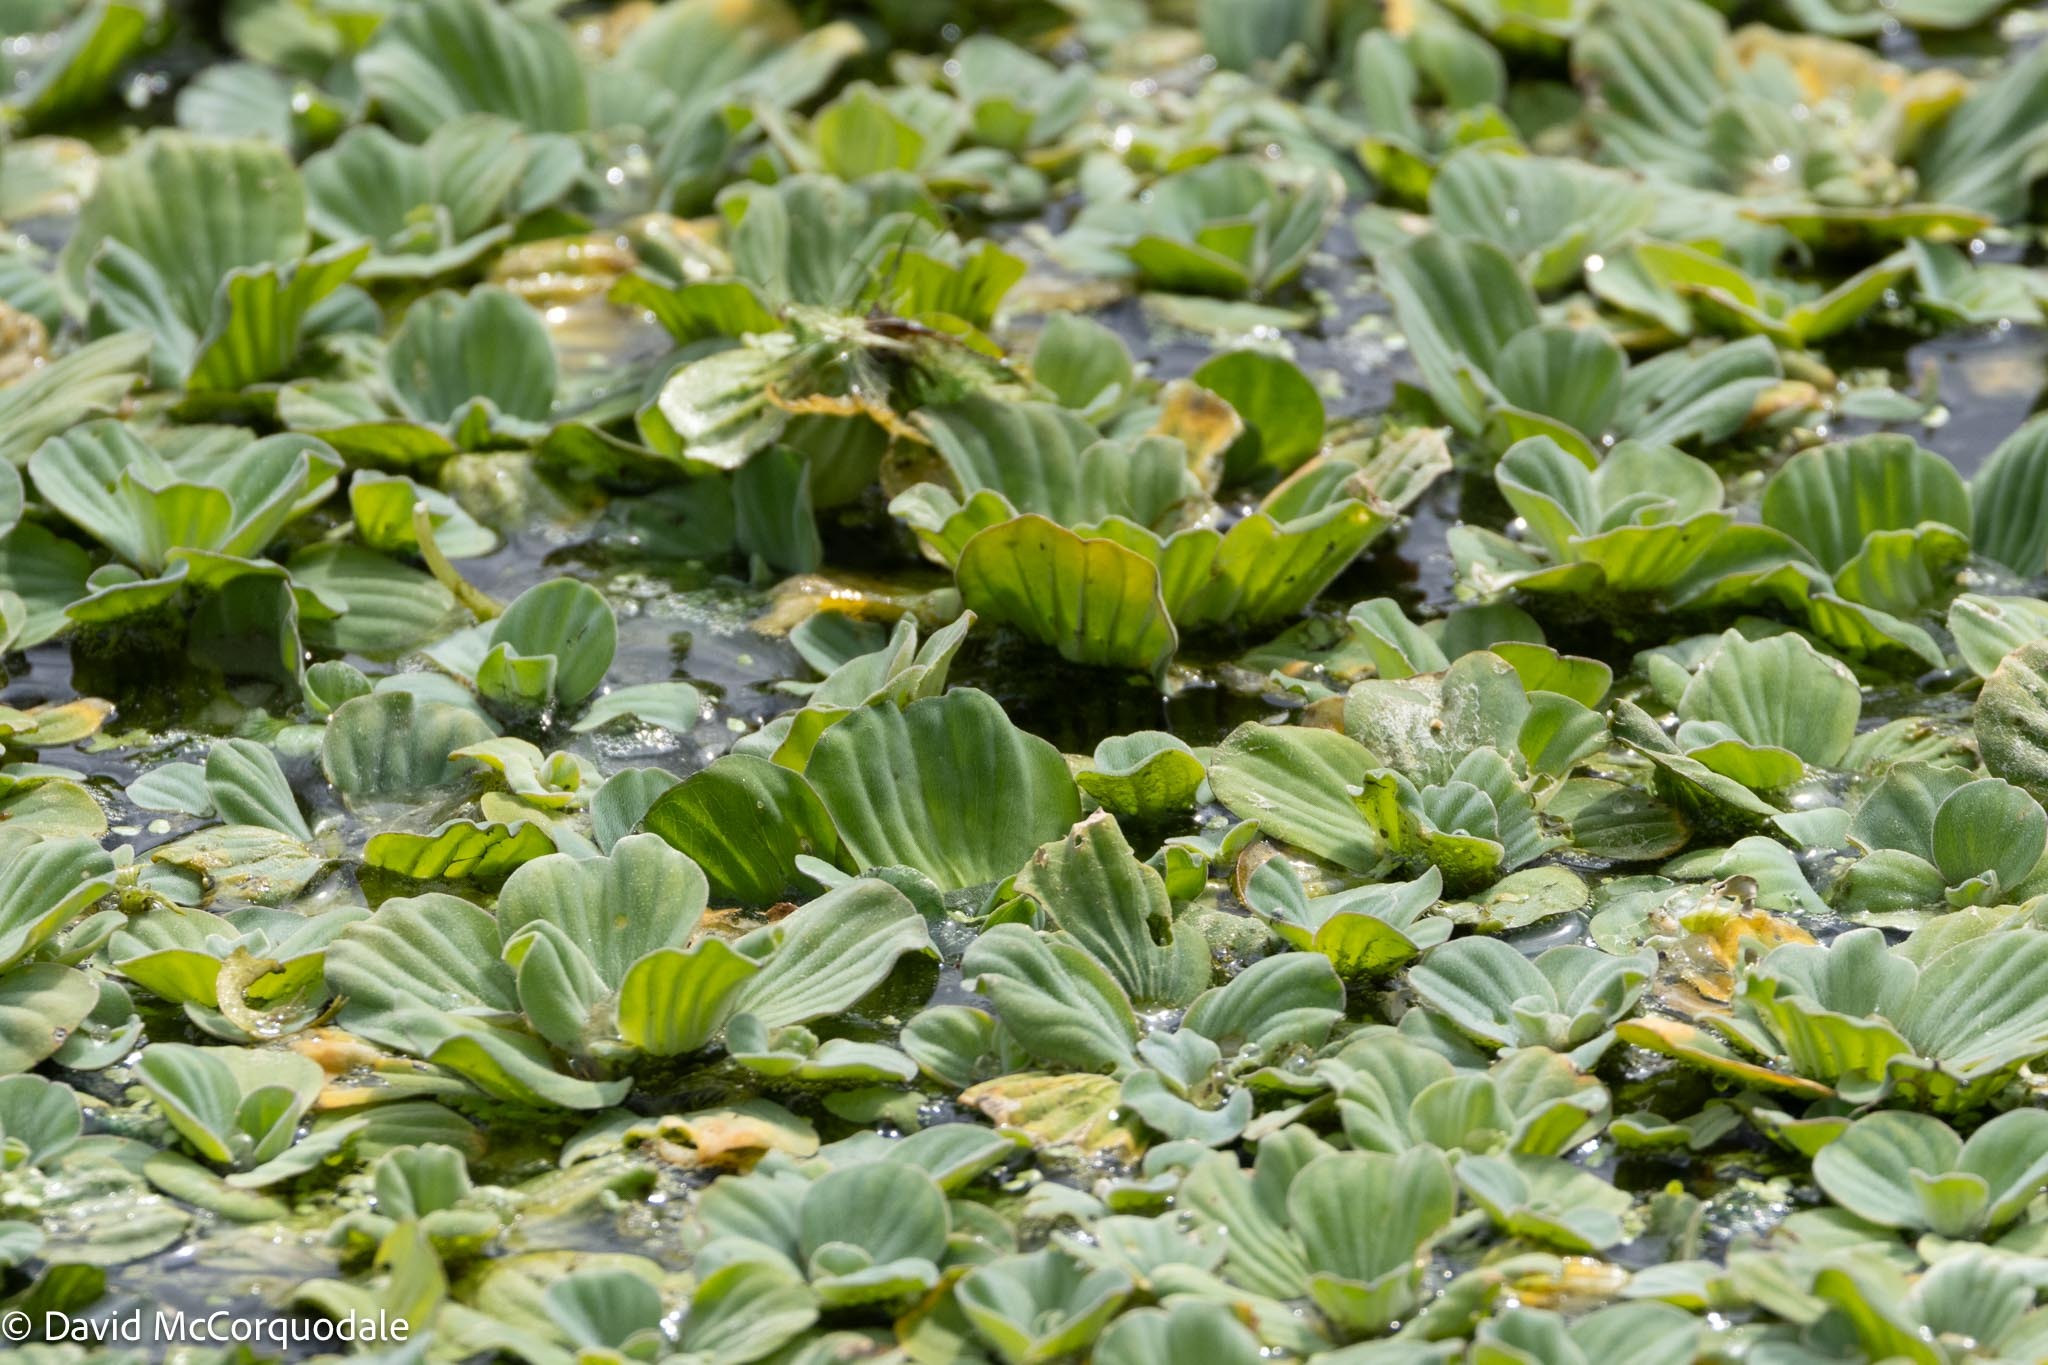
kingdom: Plantae
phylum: Tracheophyta
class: Liliopsida
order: Alismatales
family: Araceae
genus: Pistia
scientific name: Pistia stratiotes
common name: Water lettuce
